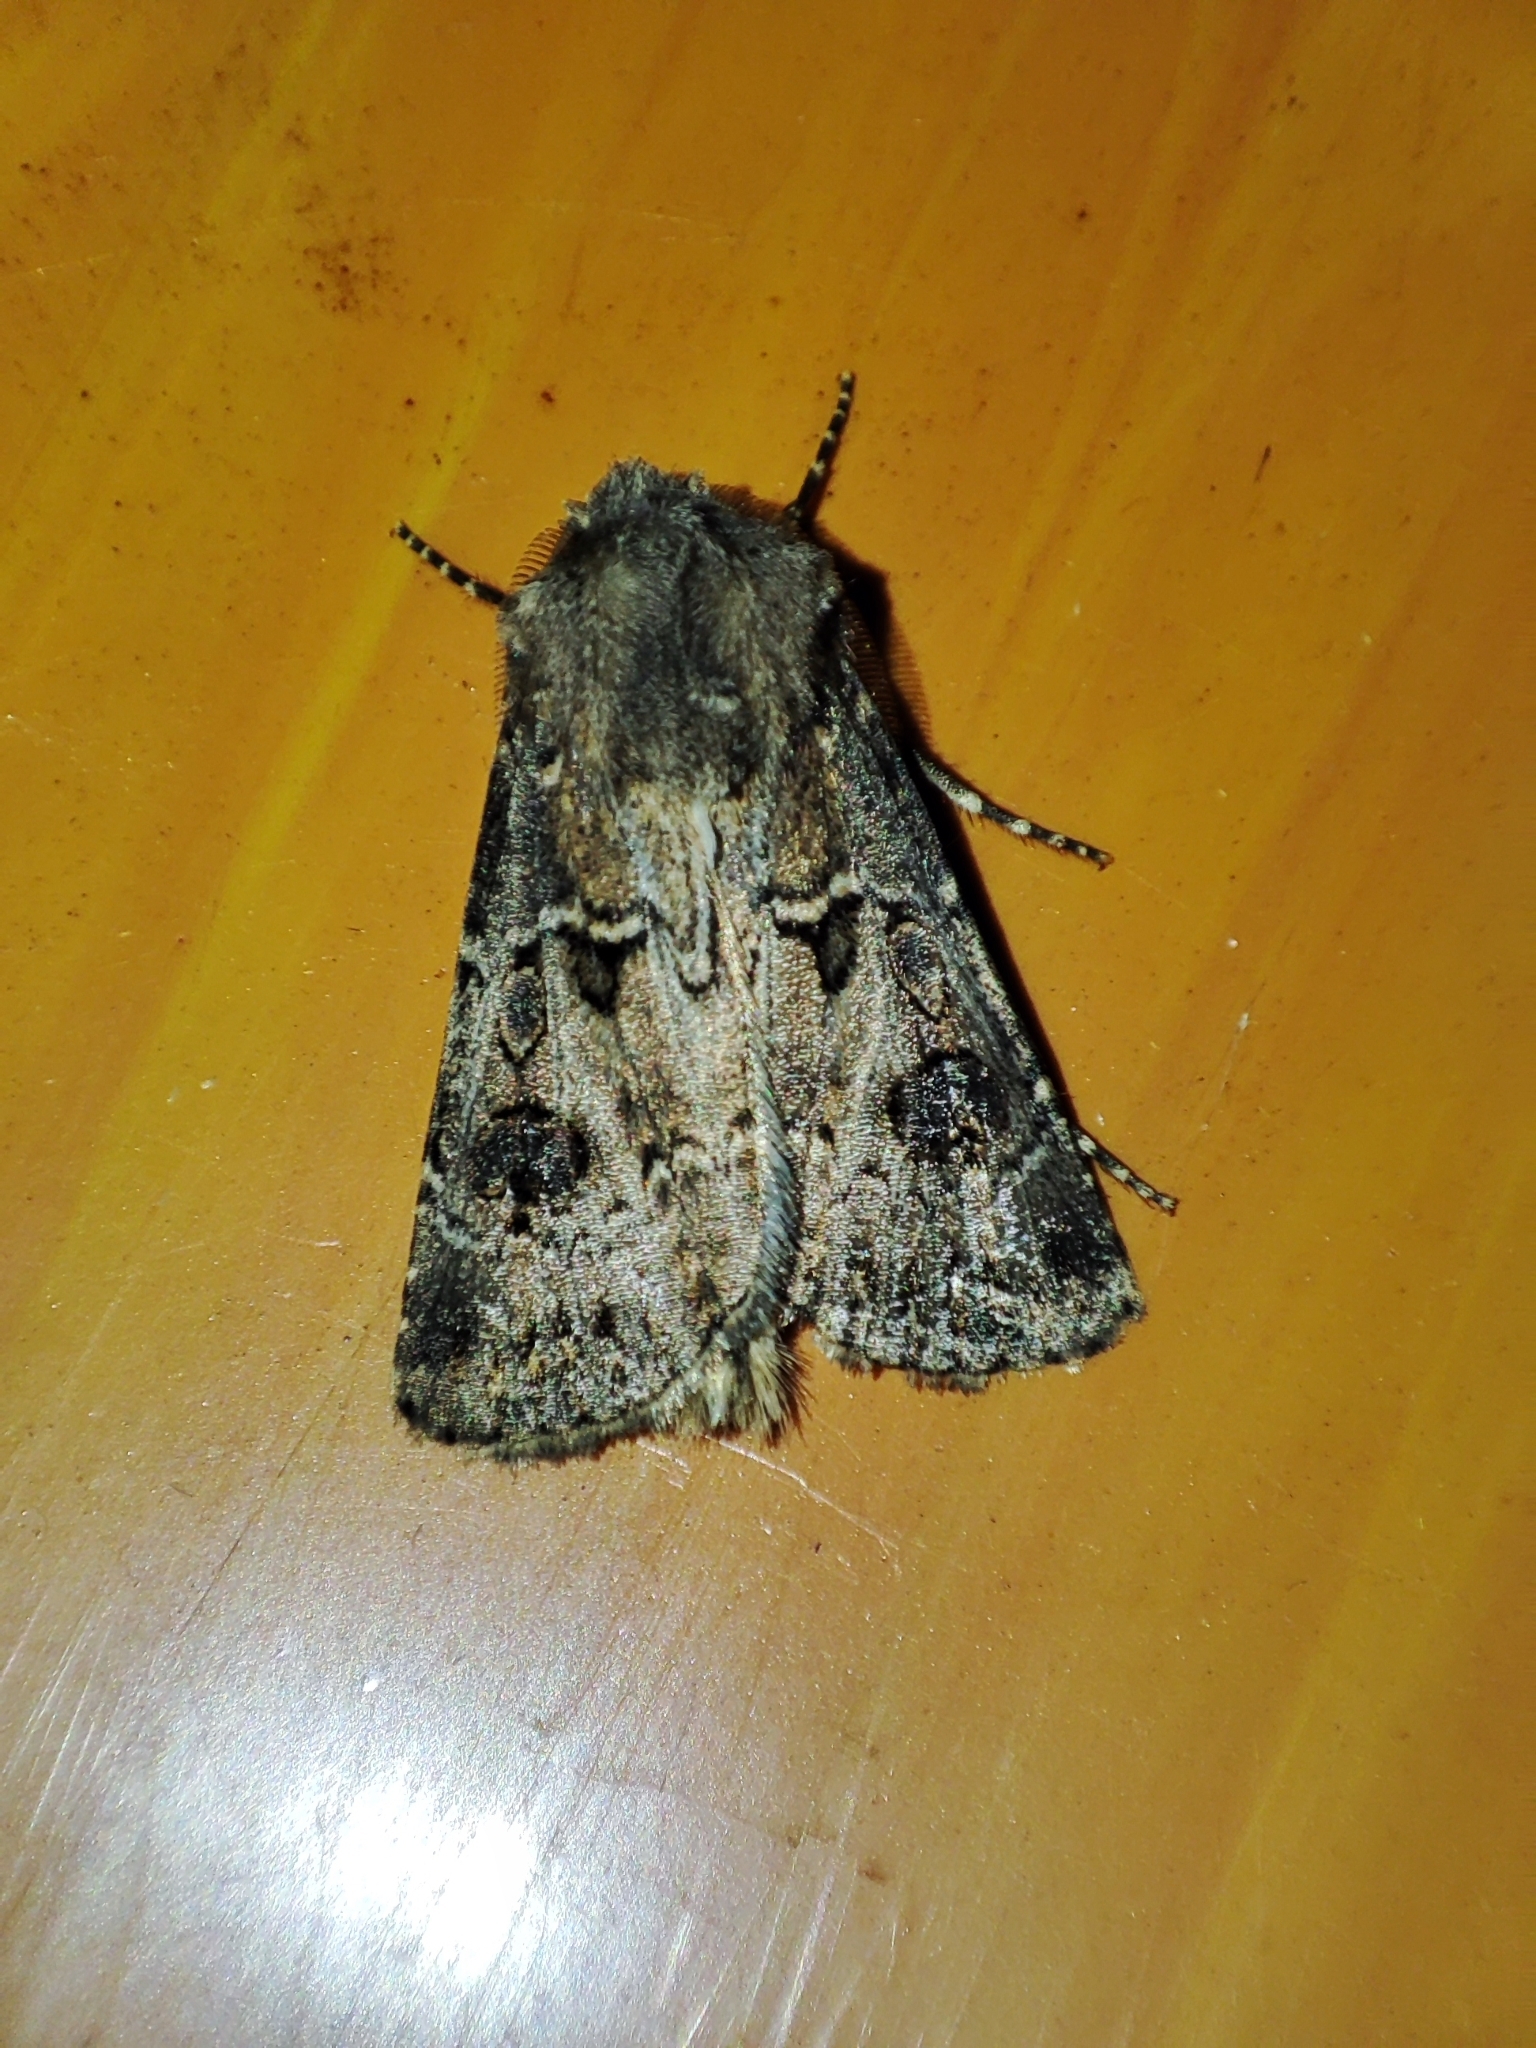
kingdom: Animalia
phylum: Arthropoda
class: Insecta
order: Lepidoptera
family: Noctuidae
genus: Agrotis
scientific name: Agrotis bigramma
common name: Great dart
